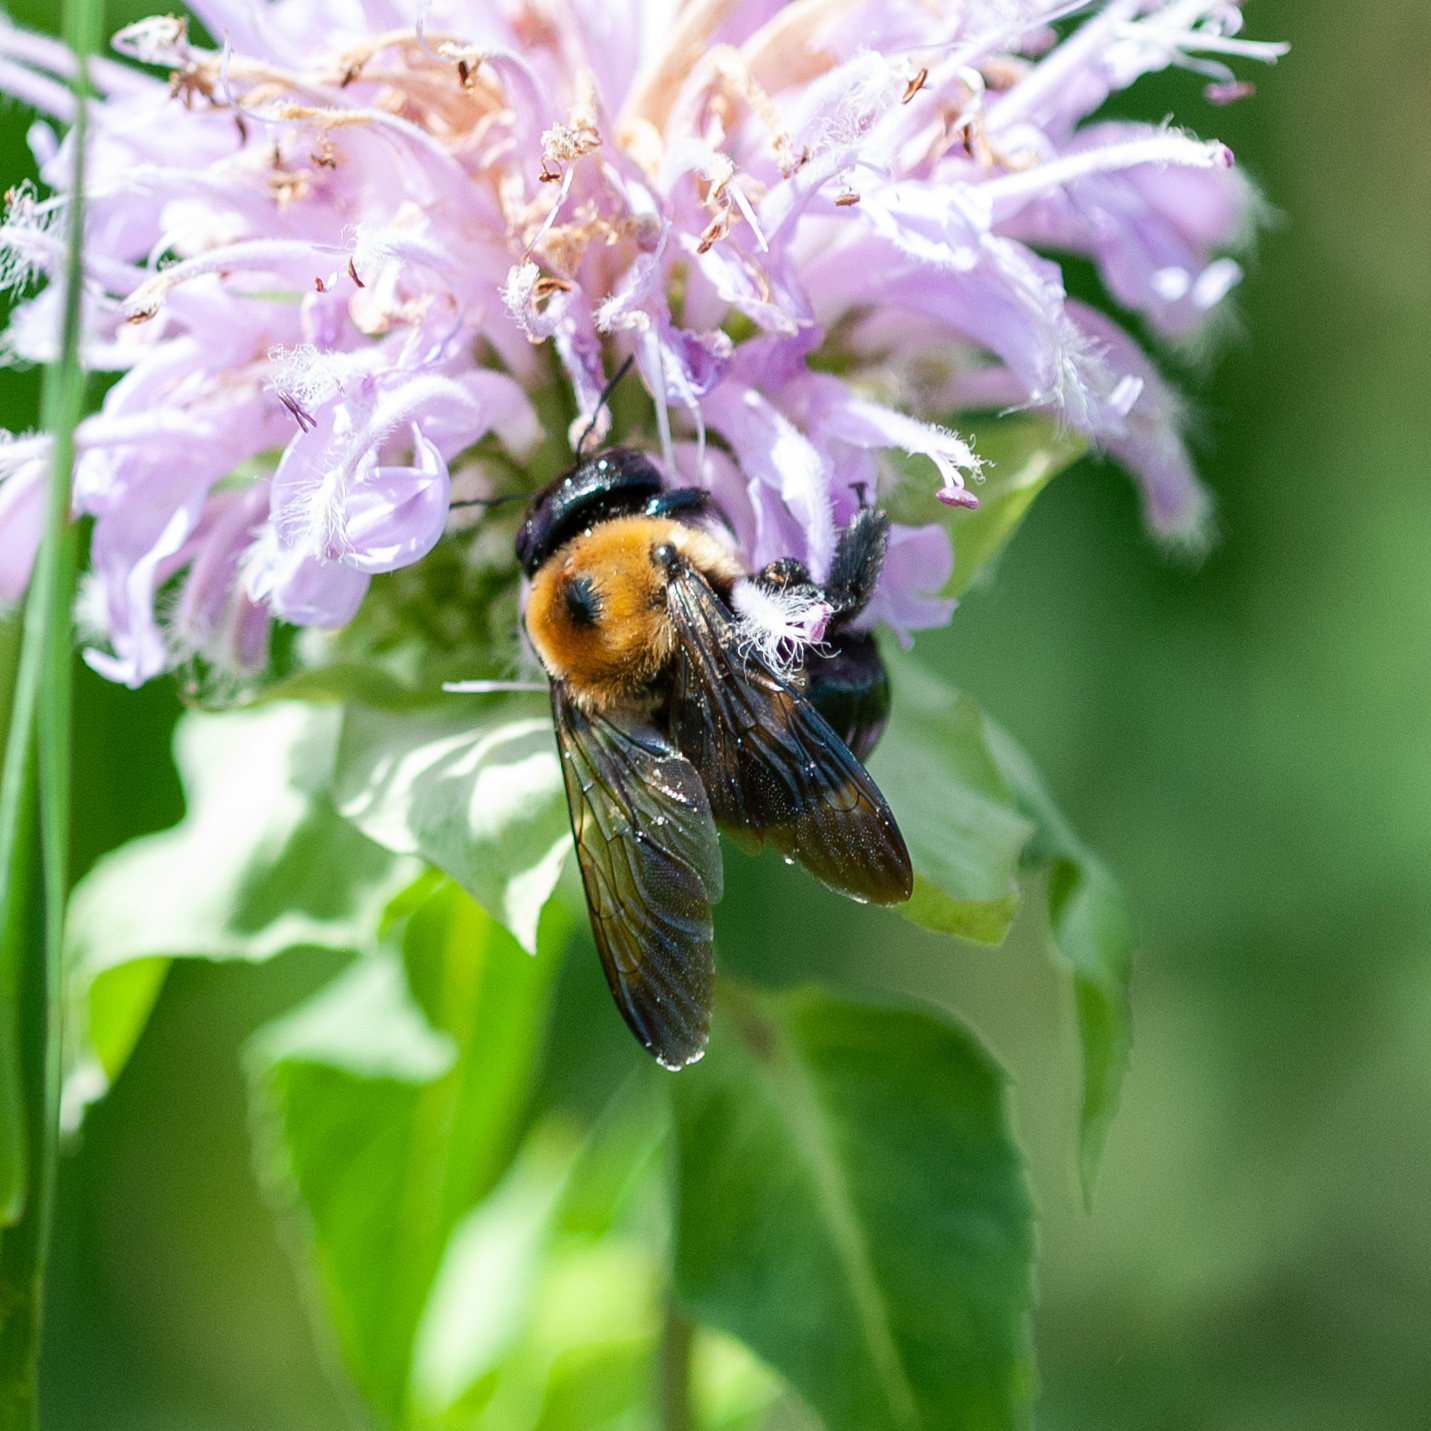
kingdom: Animalia
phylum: Arthropoda
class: Insecta
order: Hymenoptera
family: Apidae
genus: Xylocopa
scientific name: Xylocopa virginica
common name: Carpenter bee
